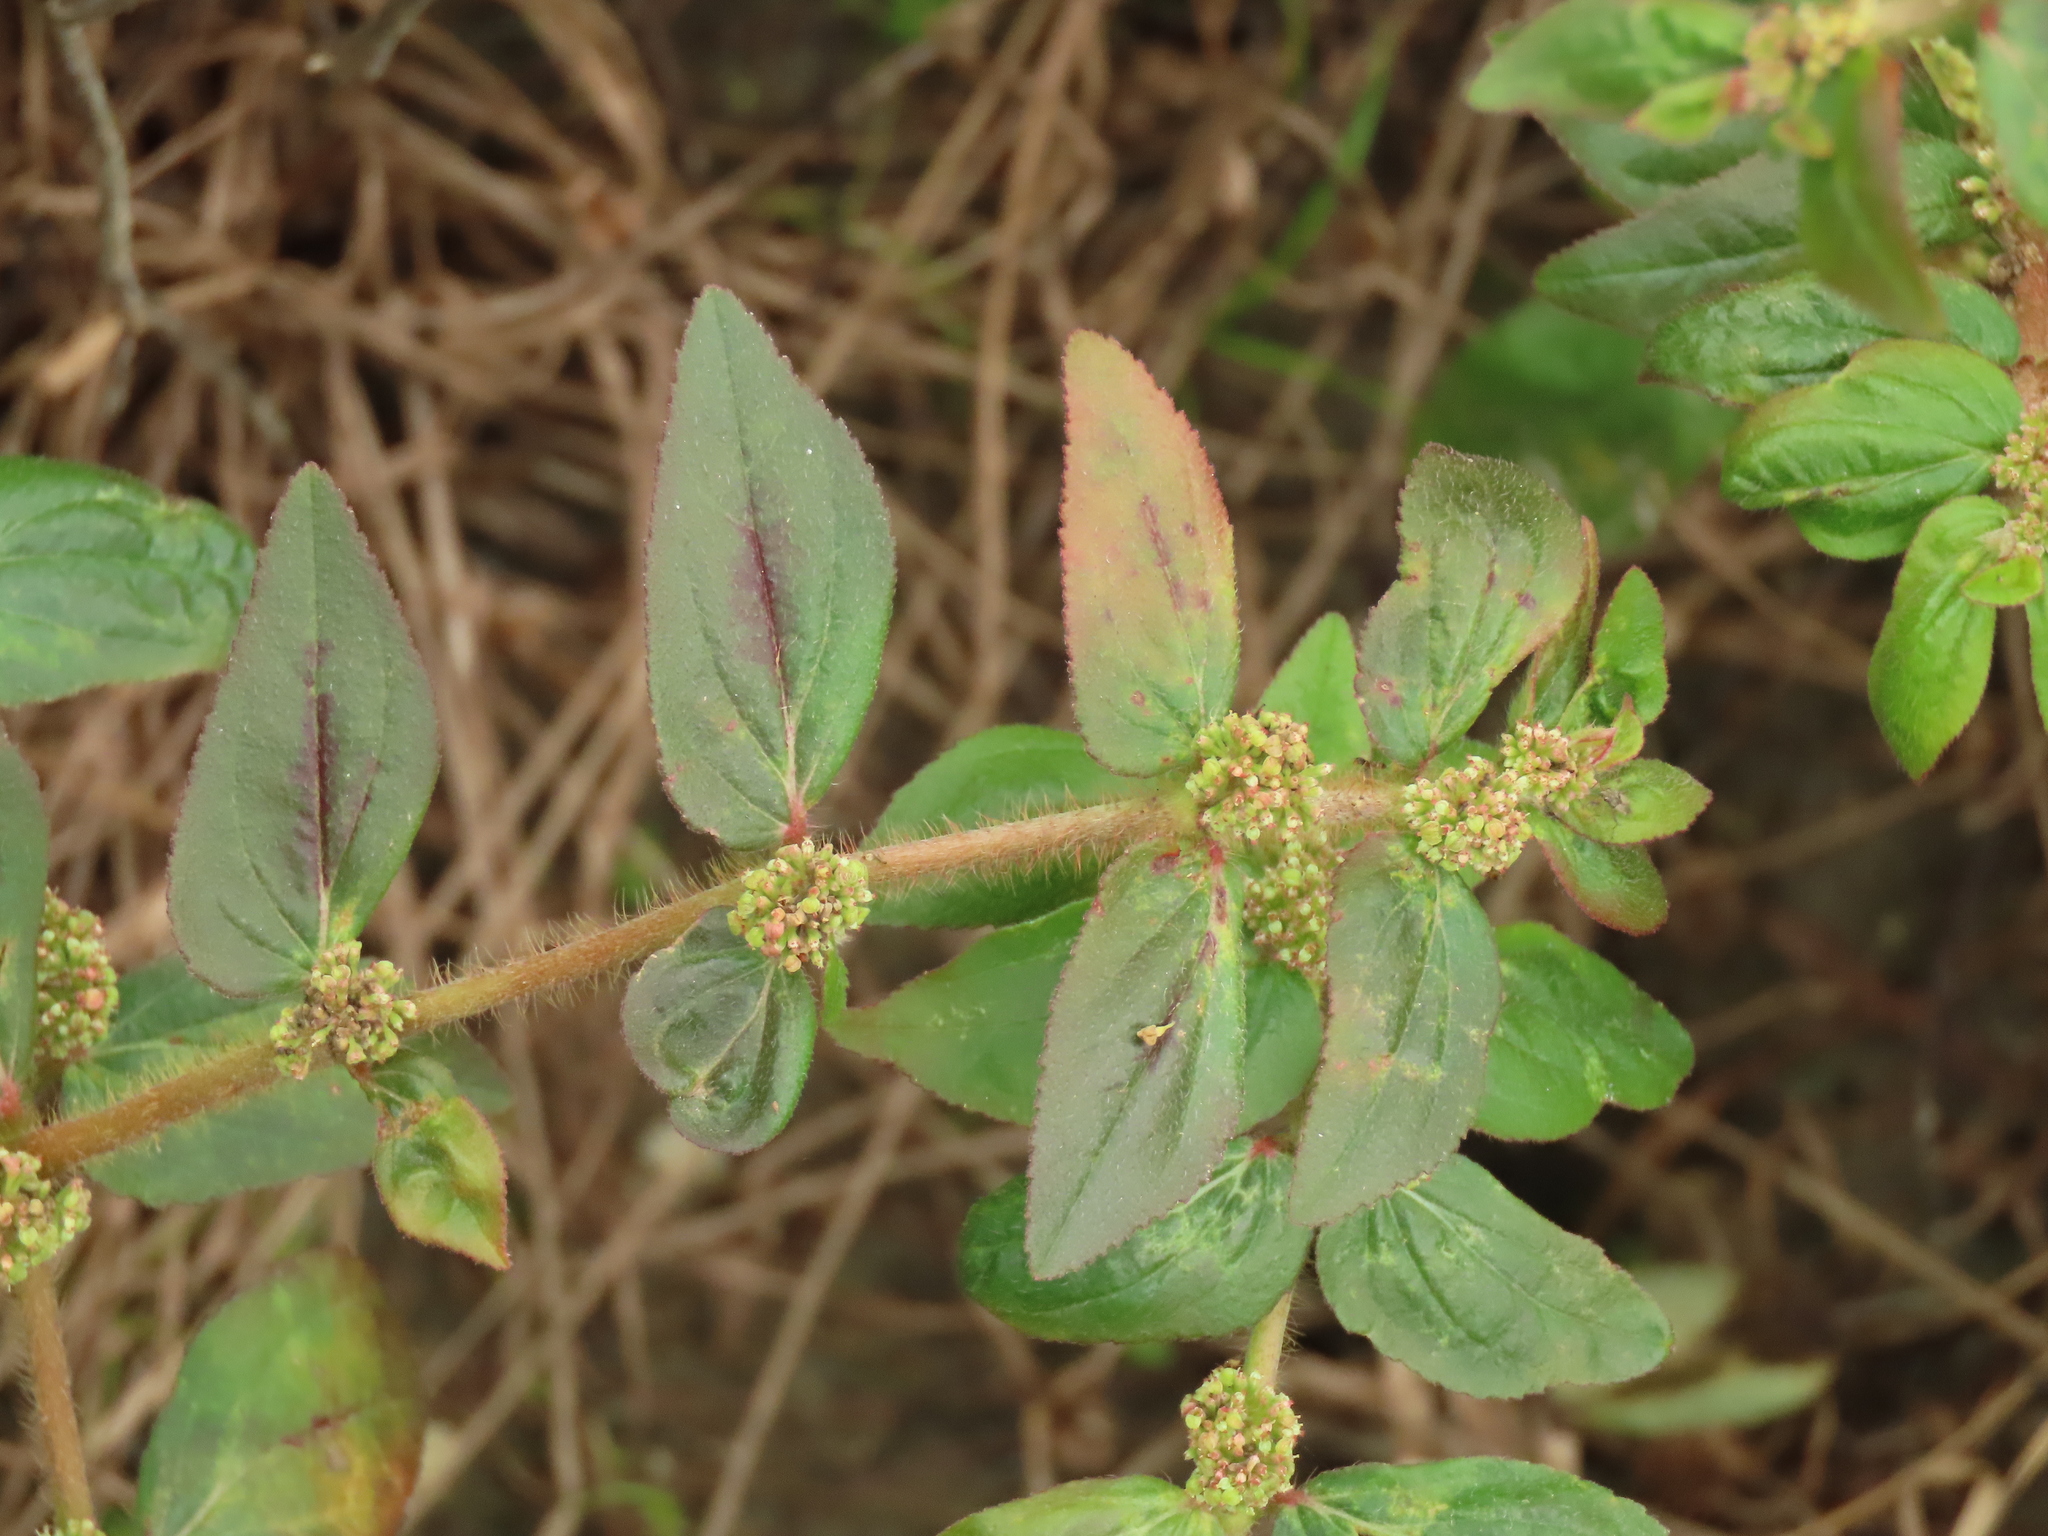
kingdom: Plantae
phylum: Tracheophyta
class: Magnoliopsida
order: Malpighiales
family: Euphorbiaceae
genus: Euphorbia
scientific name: Euphorbia hirta
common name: Pillpod sandmat
